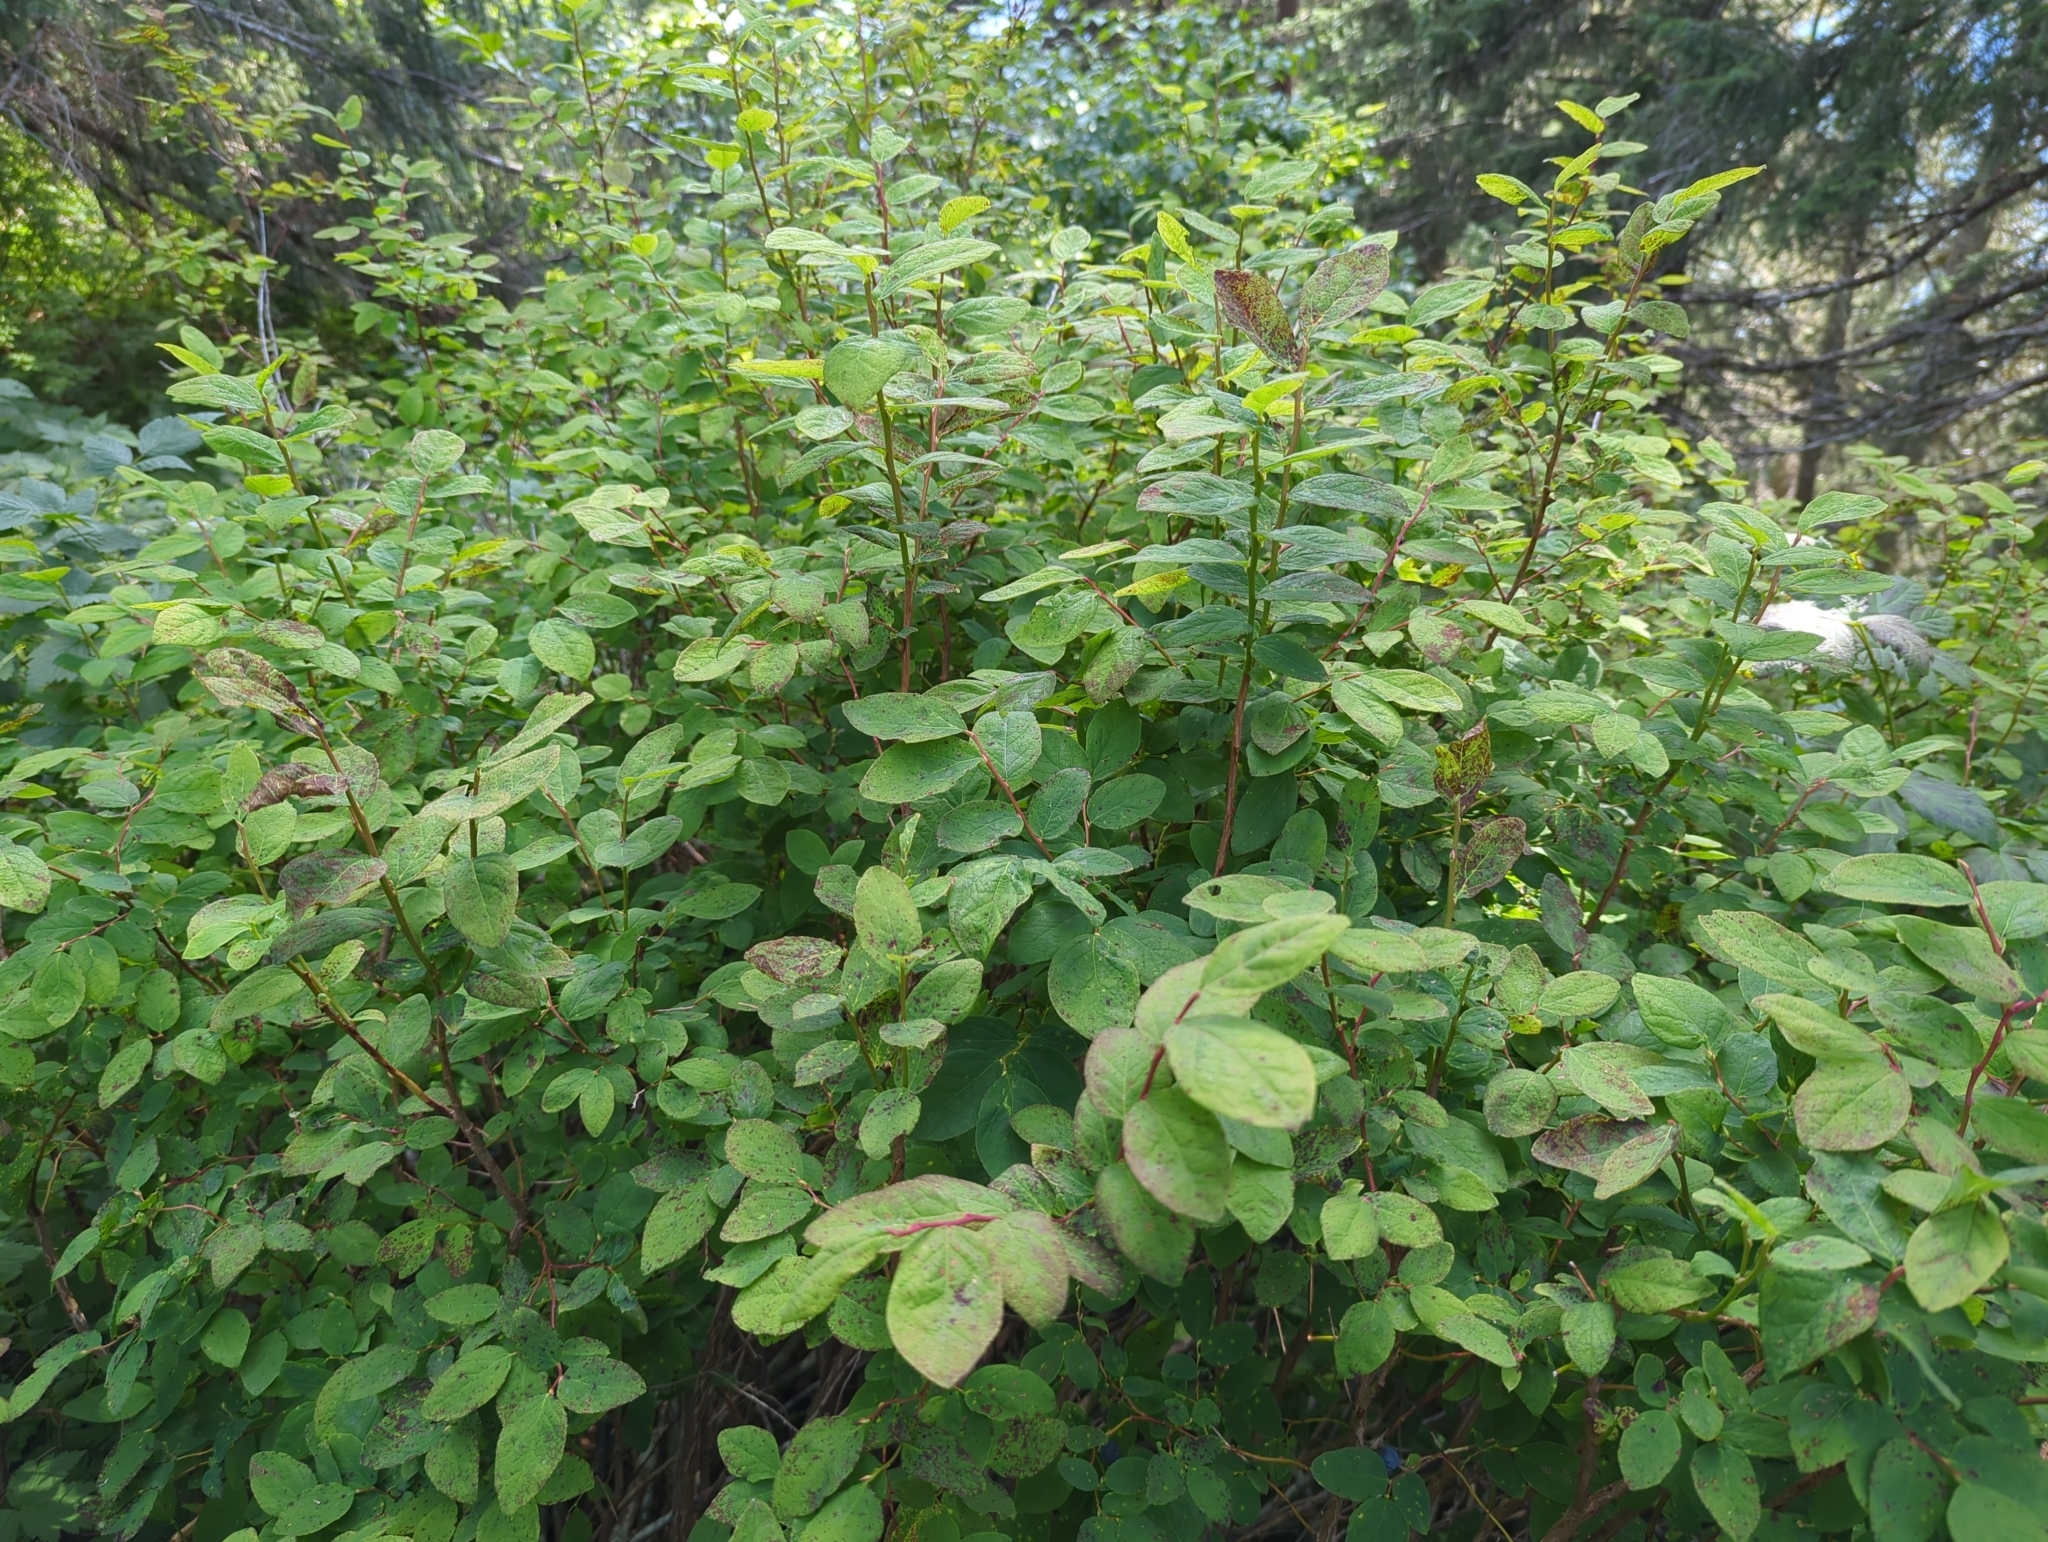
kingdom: Plantae
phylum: Tracheophyta
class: Magnoliopsida
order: Ericales
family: Ericaceae
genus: Vaccinium
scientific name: Vaccinium ovalifolium
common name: Early blueberry
